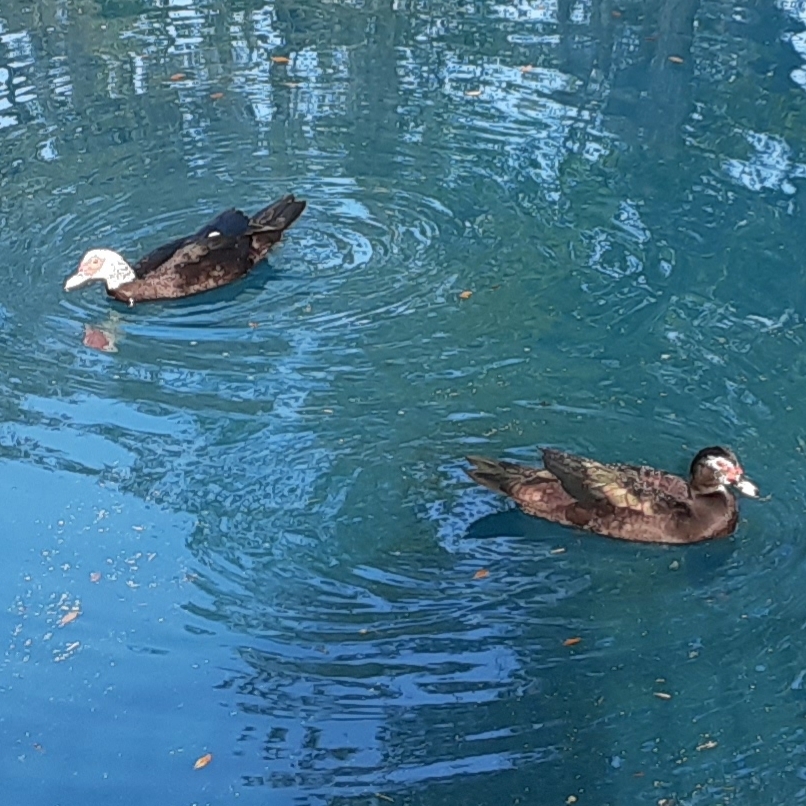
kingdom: Animalia
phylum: Chordata
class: Aves
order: Anseriformes
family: Anatidae
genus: Cairina
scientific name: Cairina moschata
